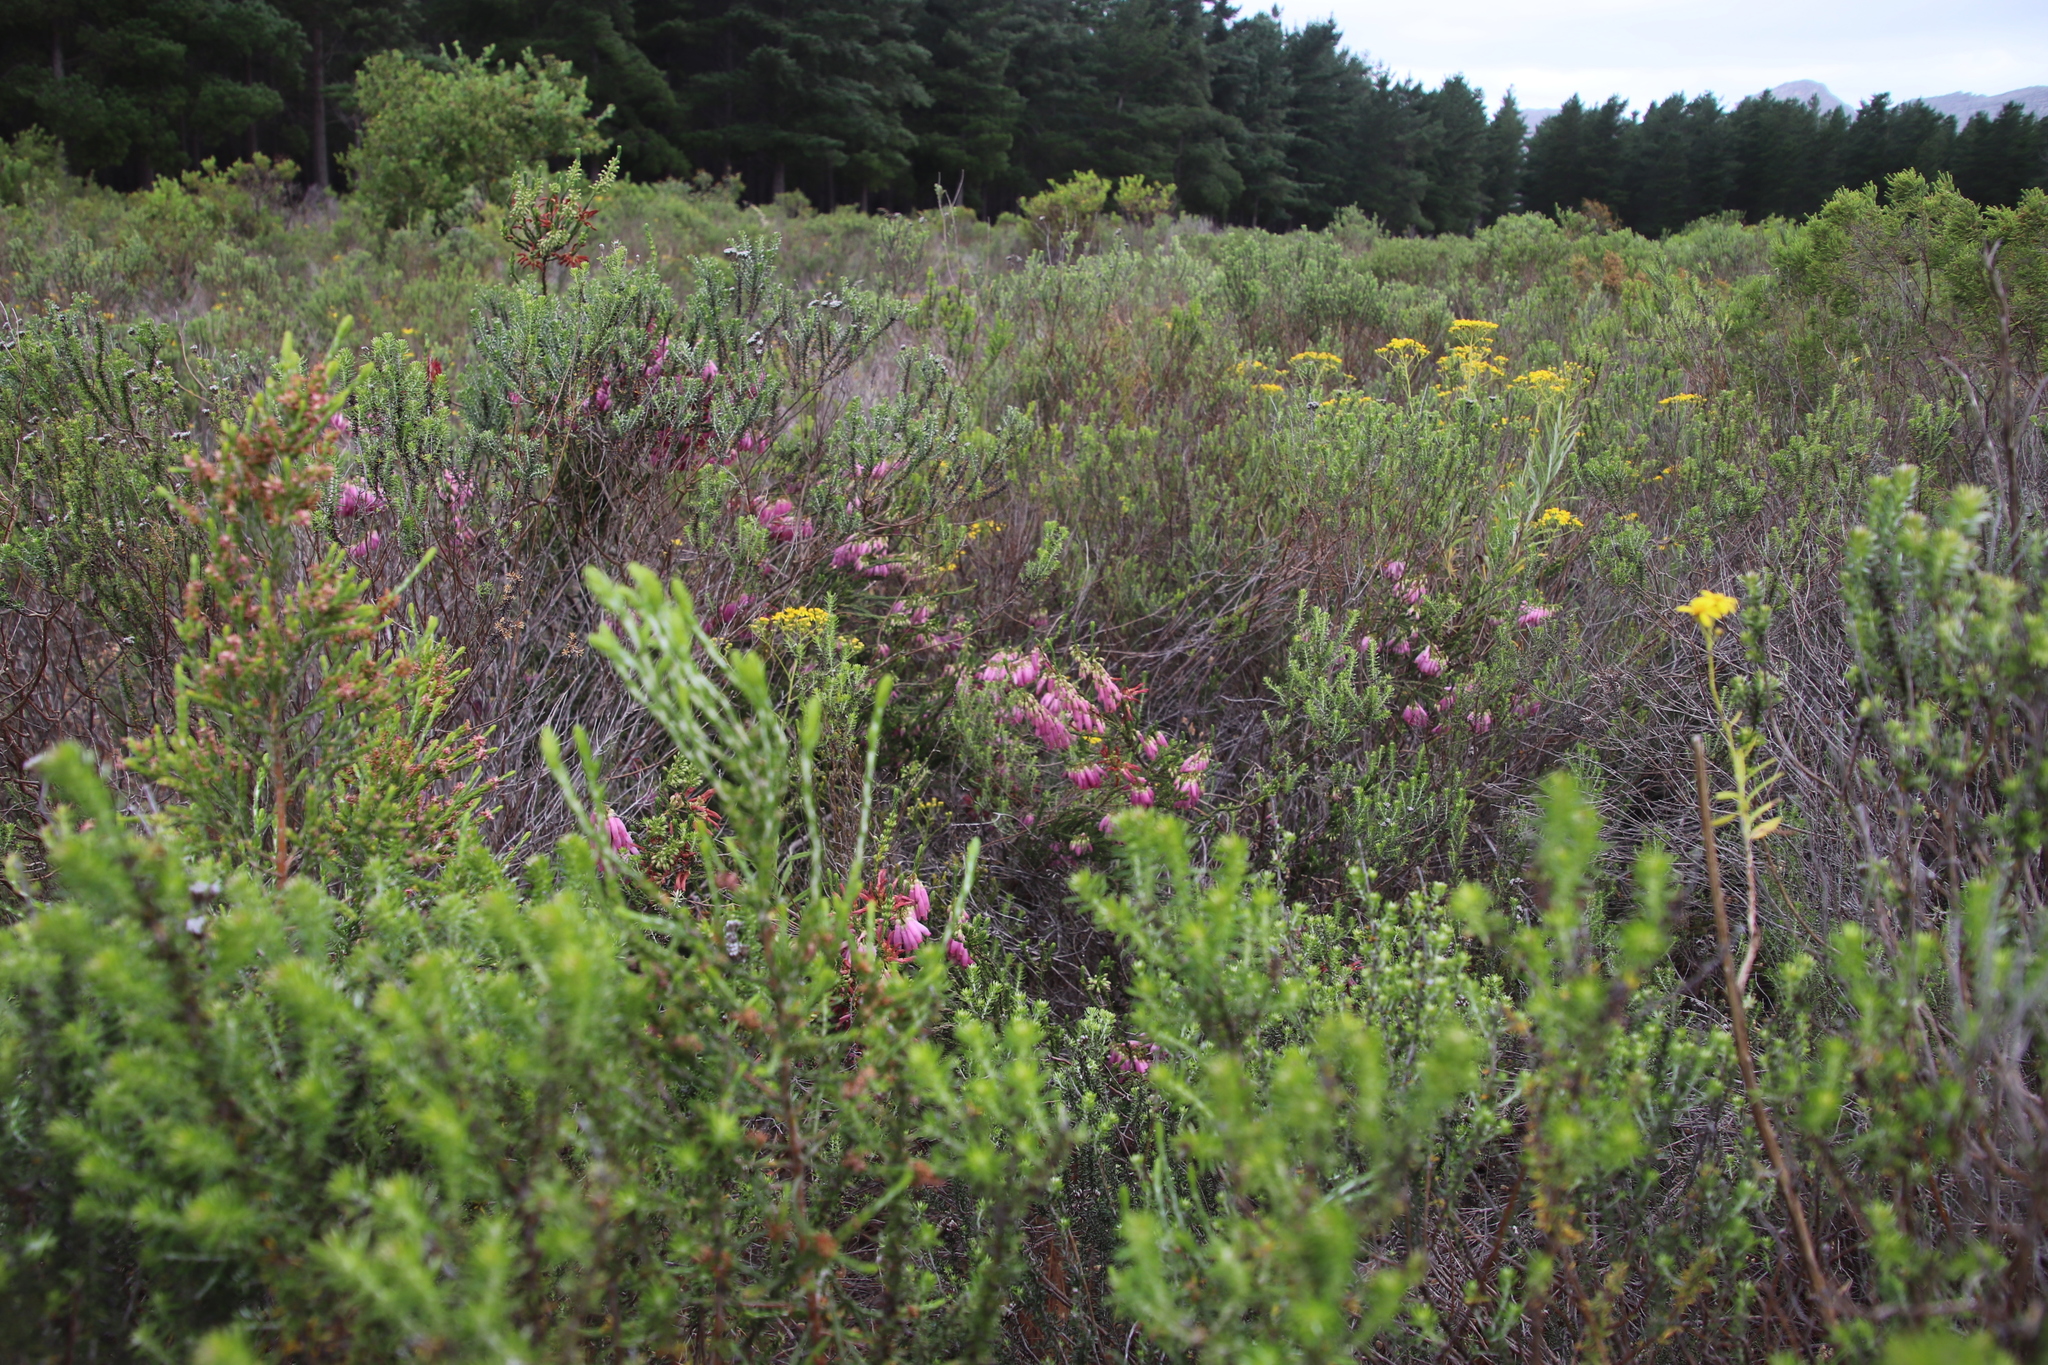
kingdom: Plantae
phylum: Tracheophyta
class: Magnoliopsida
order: Ericales
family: Ericaceae
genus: Erica
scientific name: Erica mammosa
